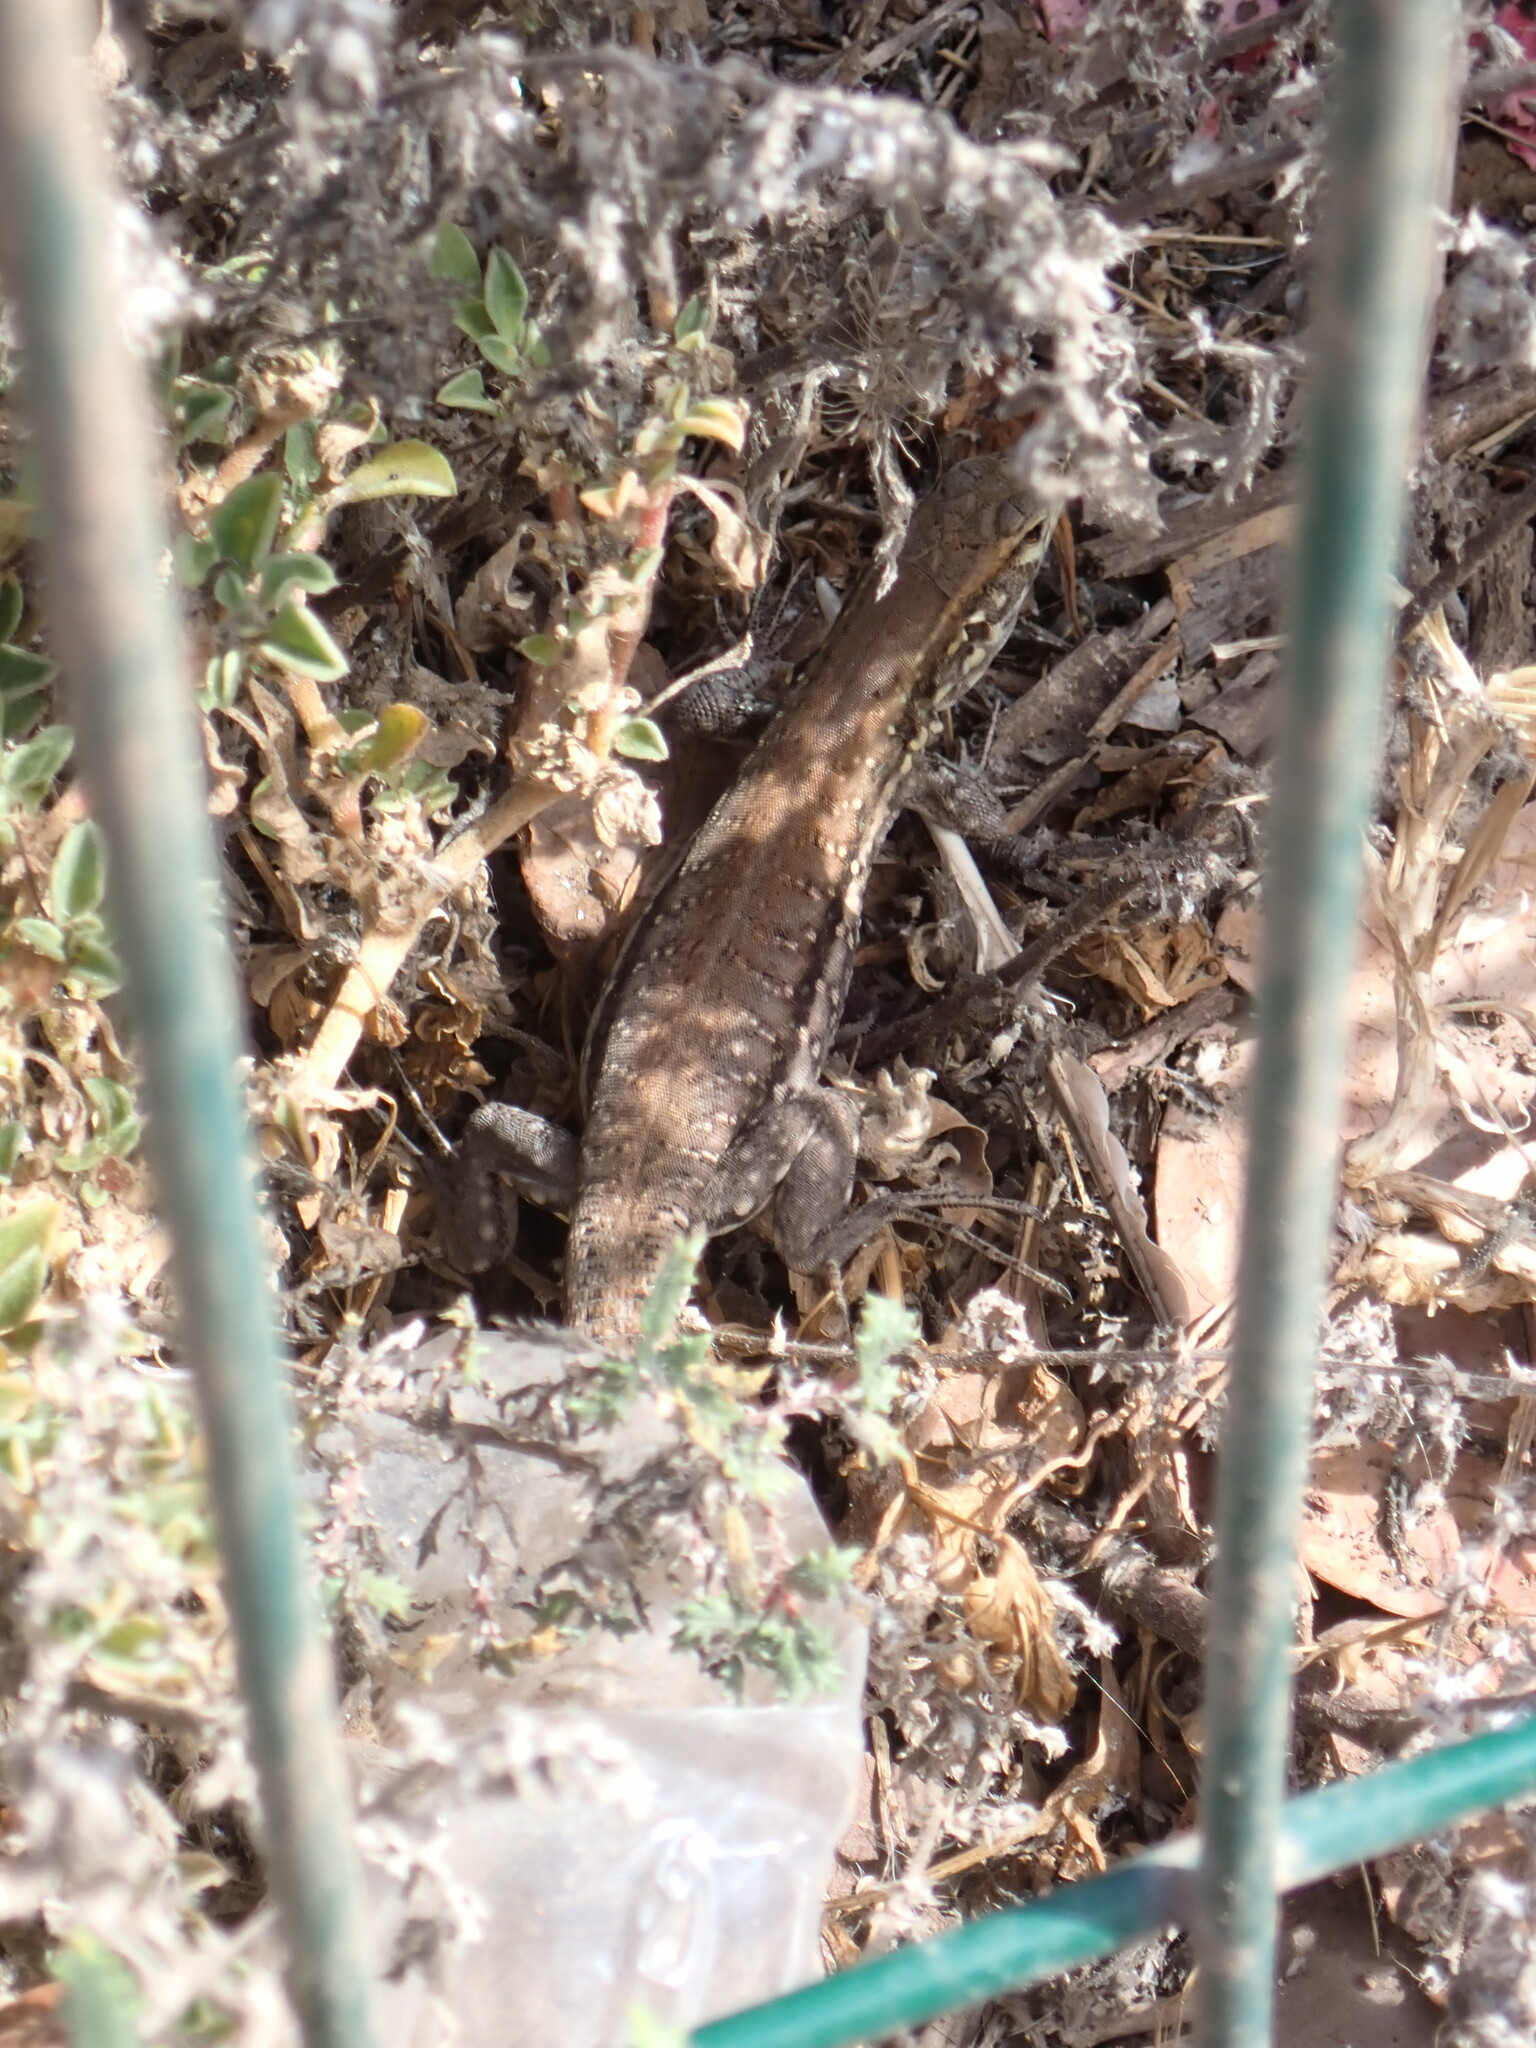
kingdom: Animalia
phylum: Chordata
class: Squamata
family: Lacertidae
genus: Gallotia
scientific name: Gallotia galloti
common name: Gallot's lizard
